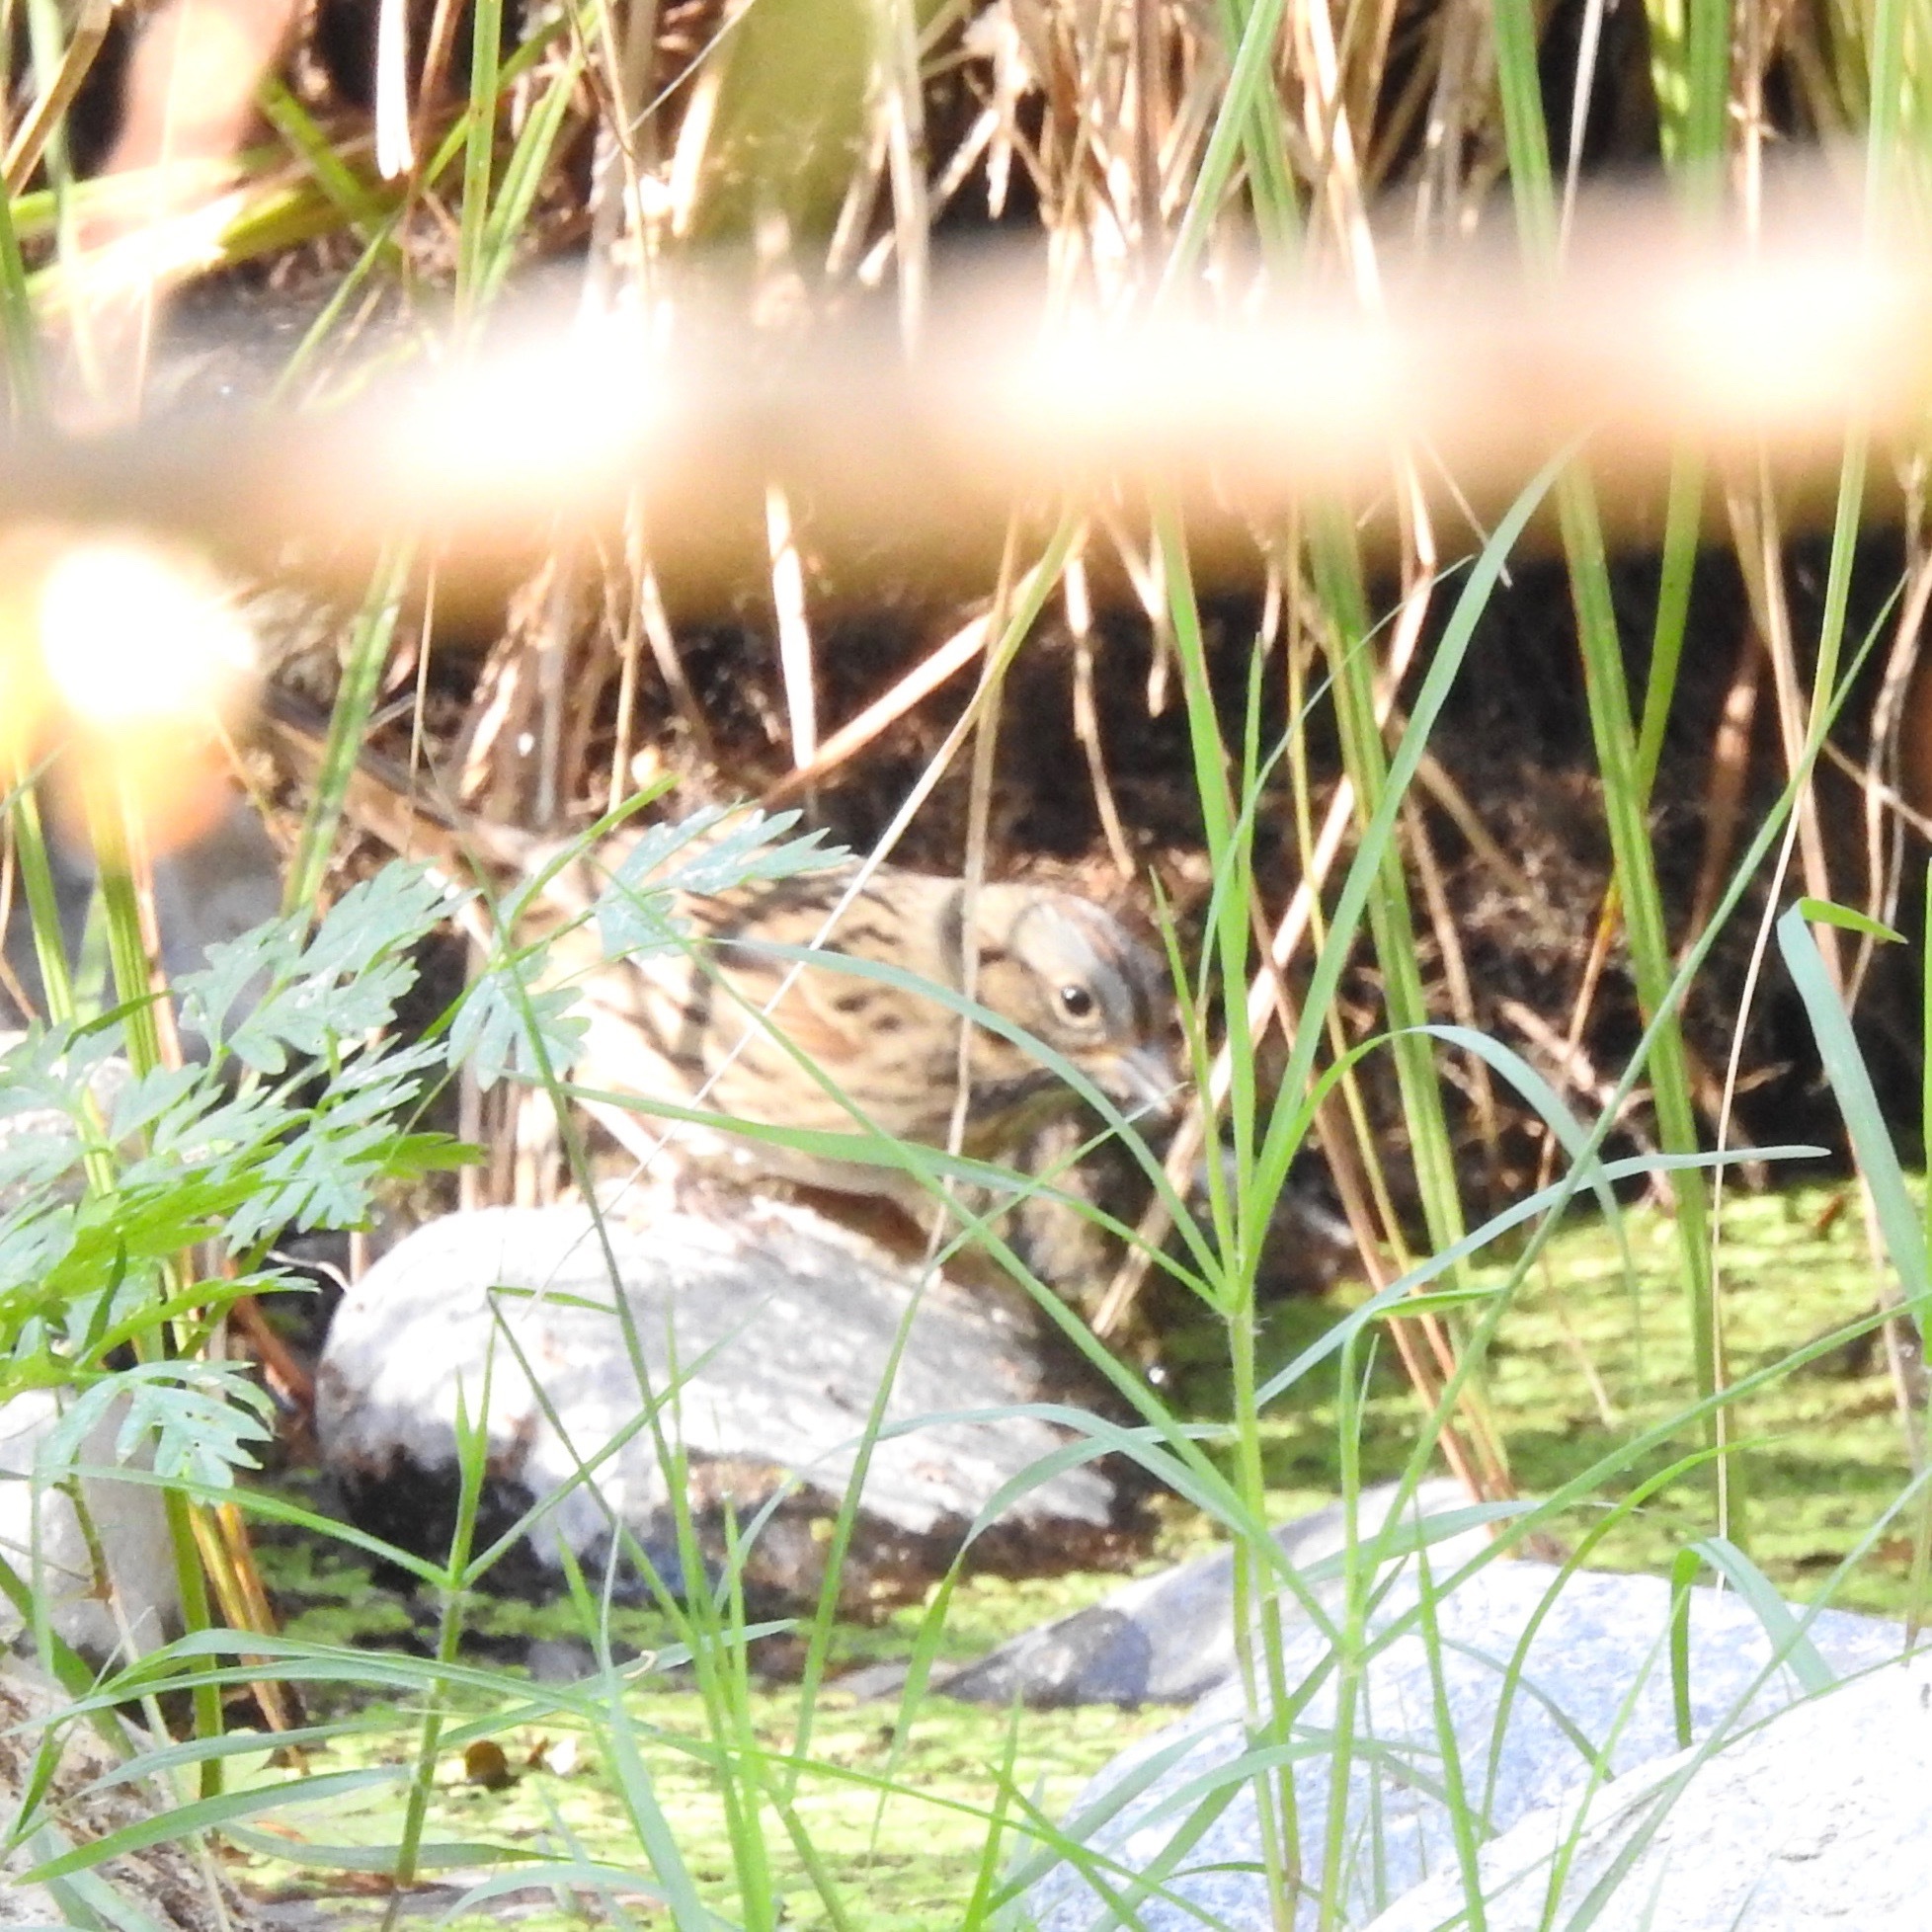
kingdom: Animalia
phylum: Chordata
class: Aves
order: Passeriformes
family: Passerellidae
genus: Melospiza
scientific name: Melospiza lincolnii
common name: Lincoln's sparrow
